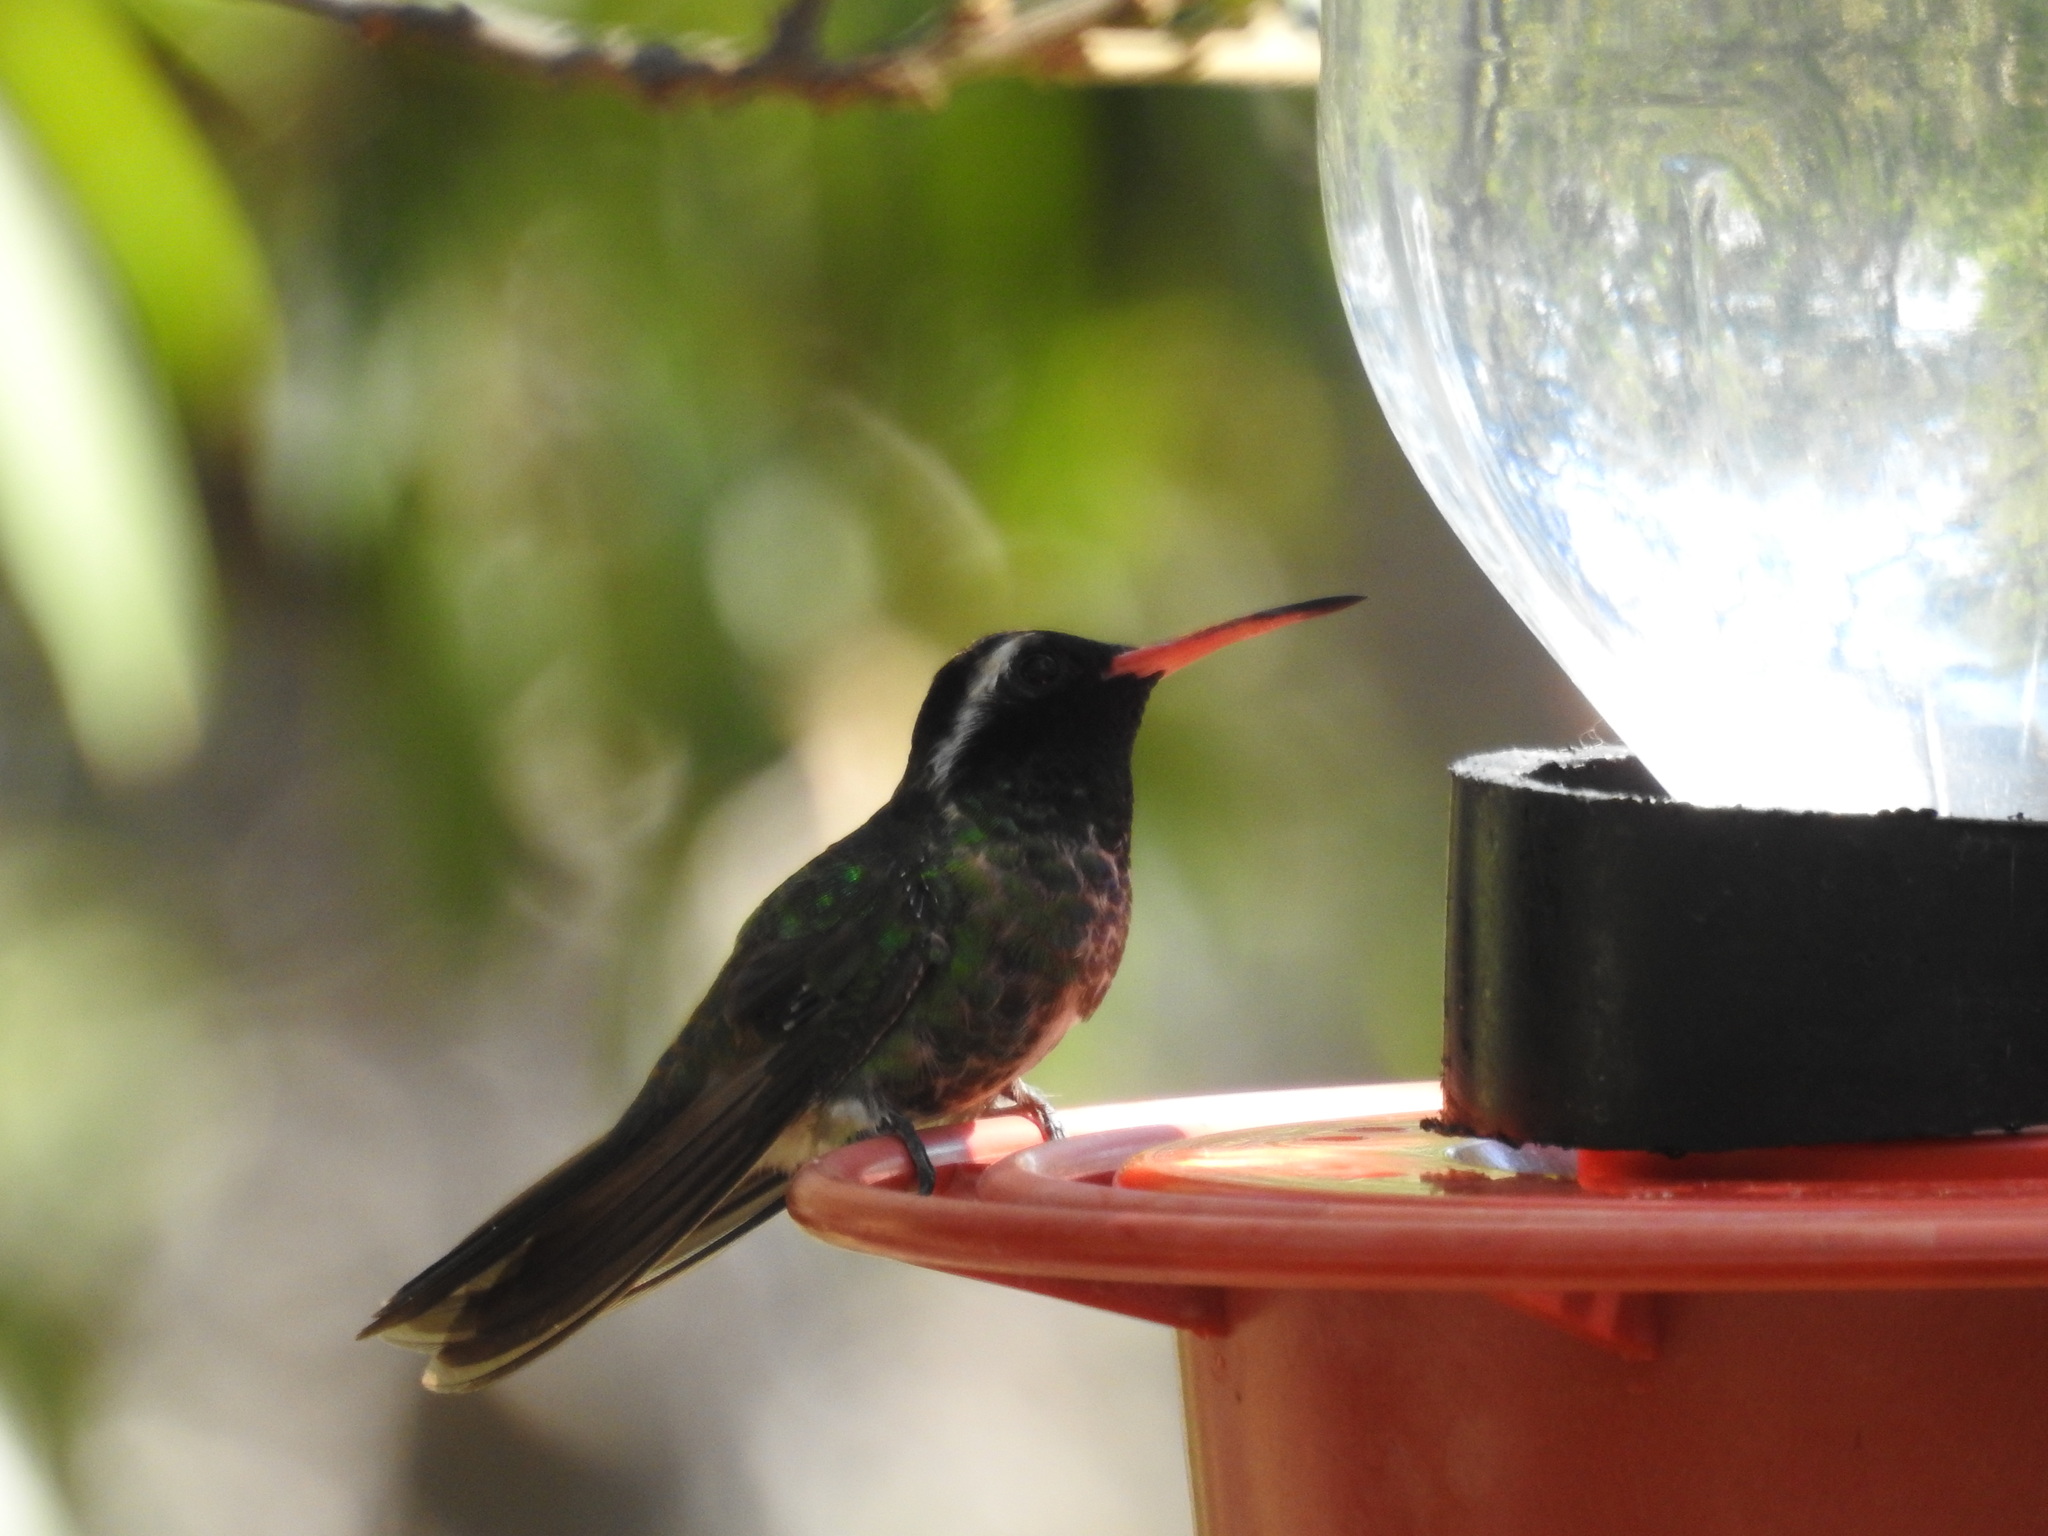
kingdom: Animalia
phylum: Chordata
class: Aves
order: Apodiformes
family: Trochilidae
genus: Basilinna
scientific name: Basilinna leucotis
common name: White-eared hummingbird
